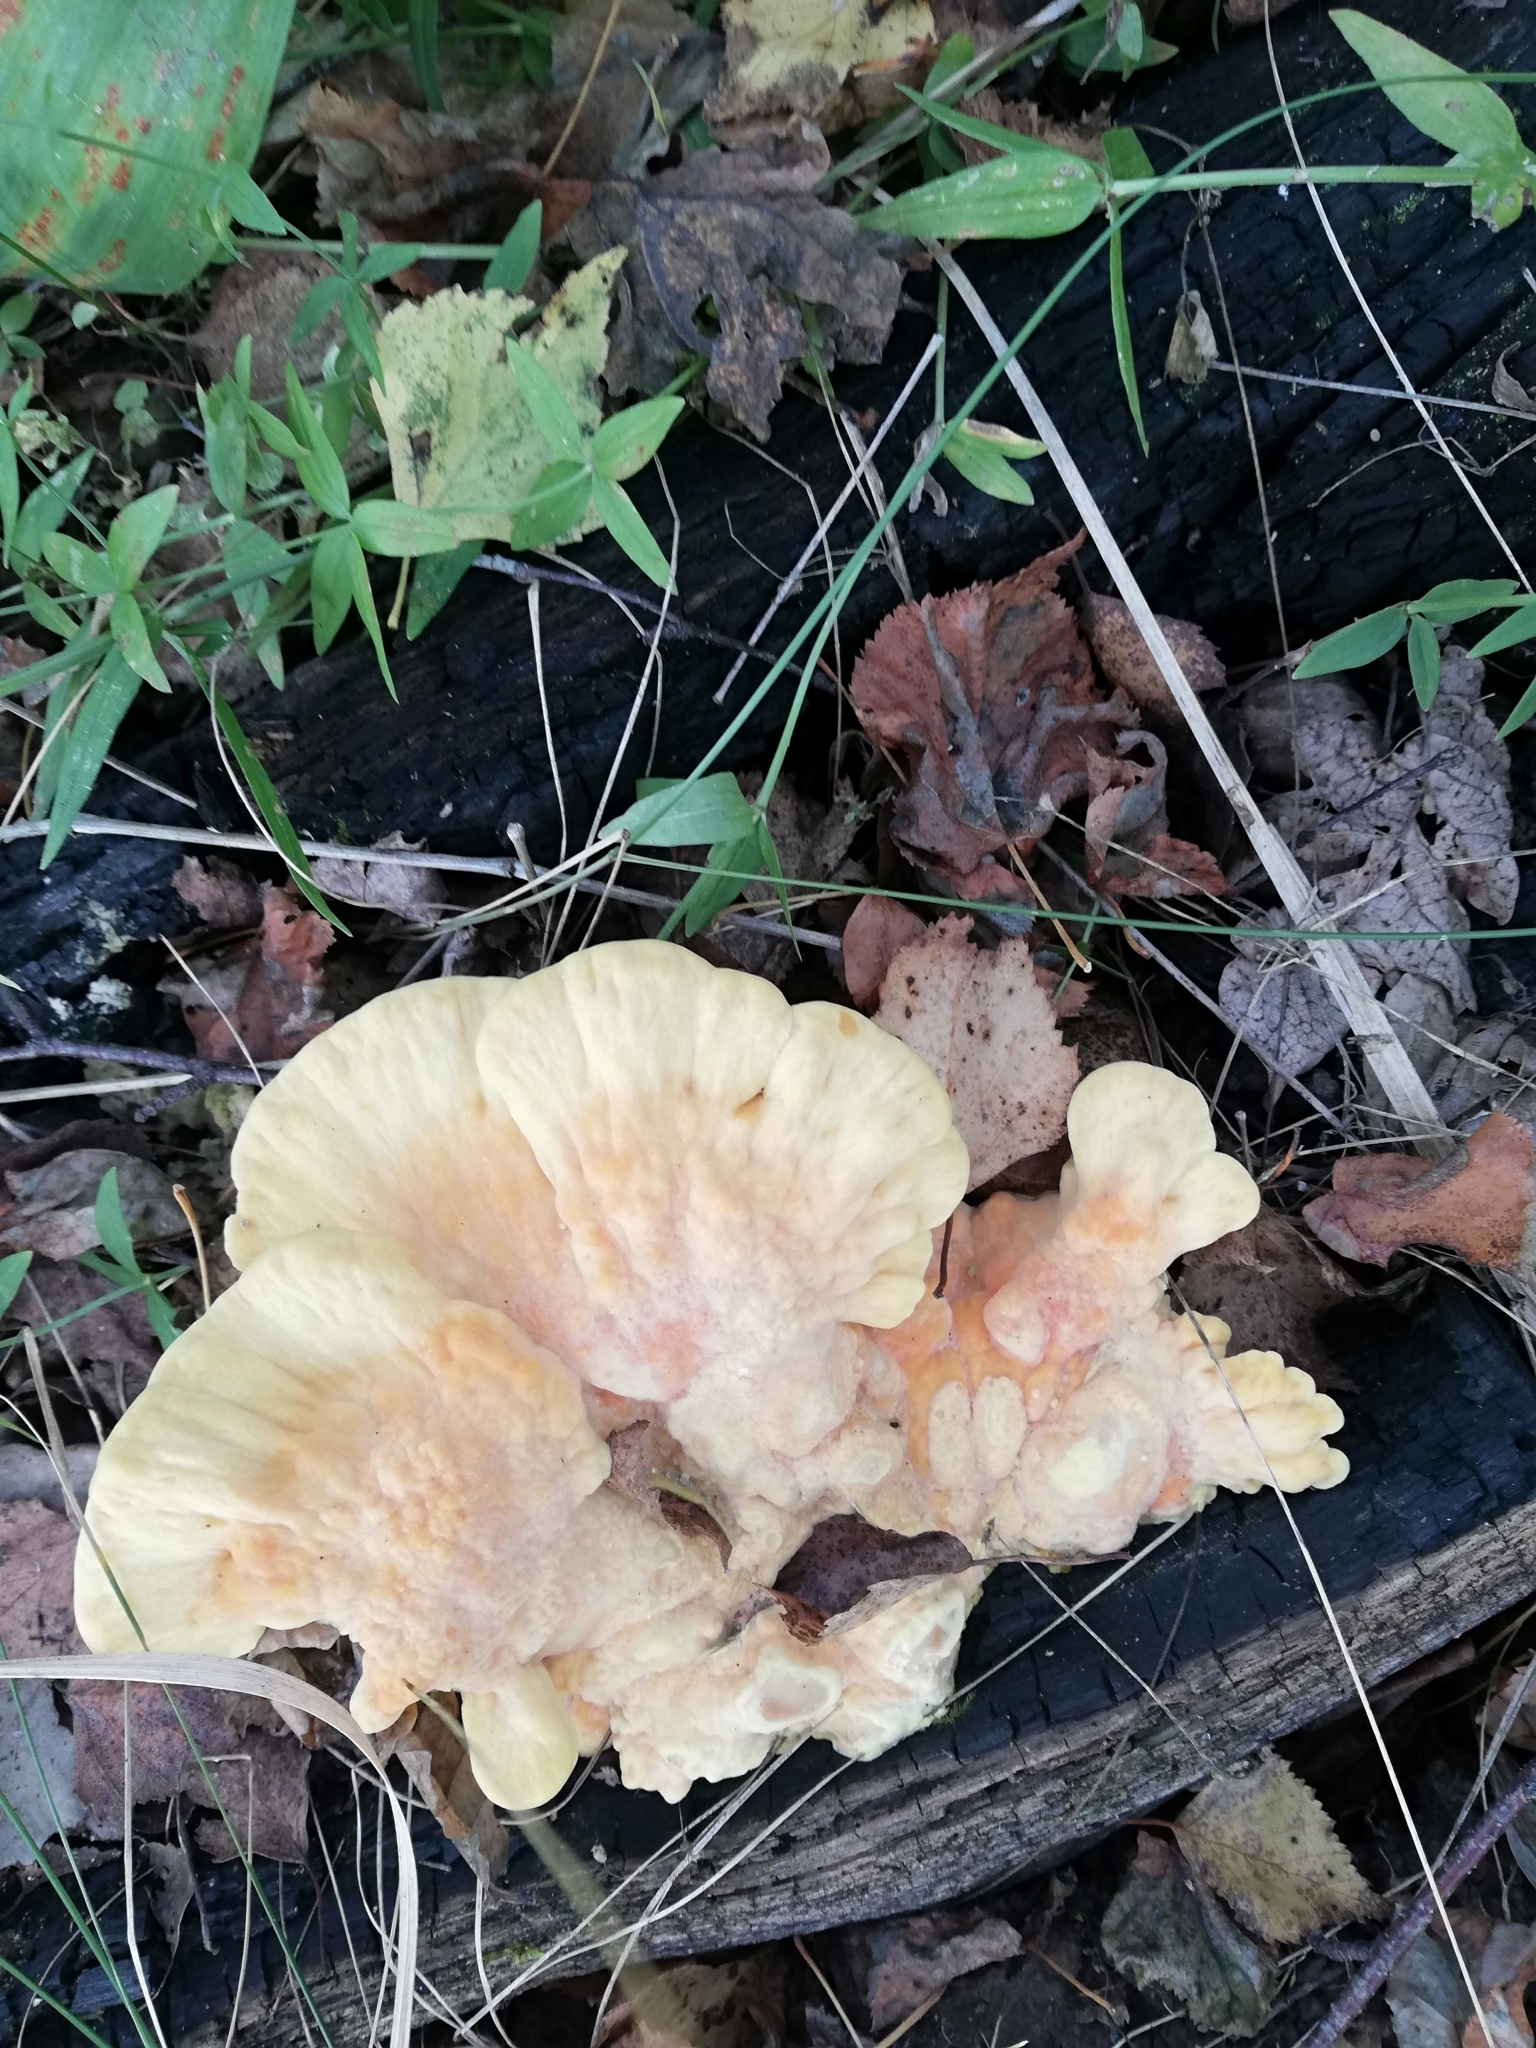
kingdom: Fungi
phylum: Basidiomycota
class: Agaricomycetes
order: Polyporales
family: Laetiporaceae
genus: Laetiporus
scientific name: Laetiporus sulphureus
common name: Chicken of the woods
